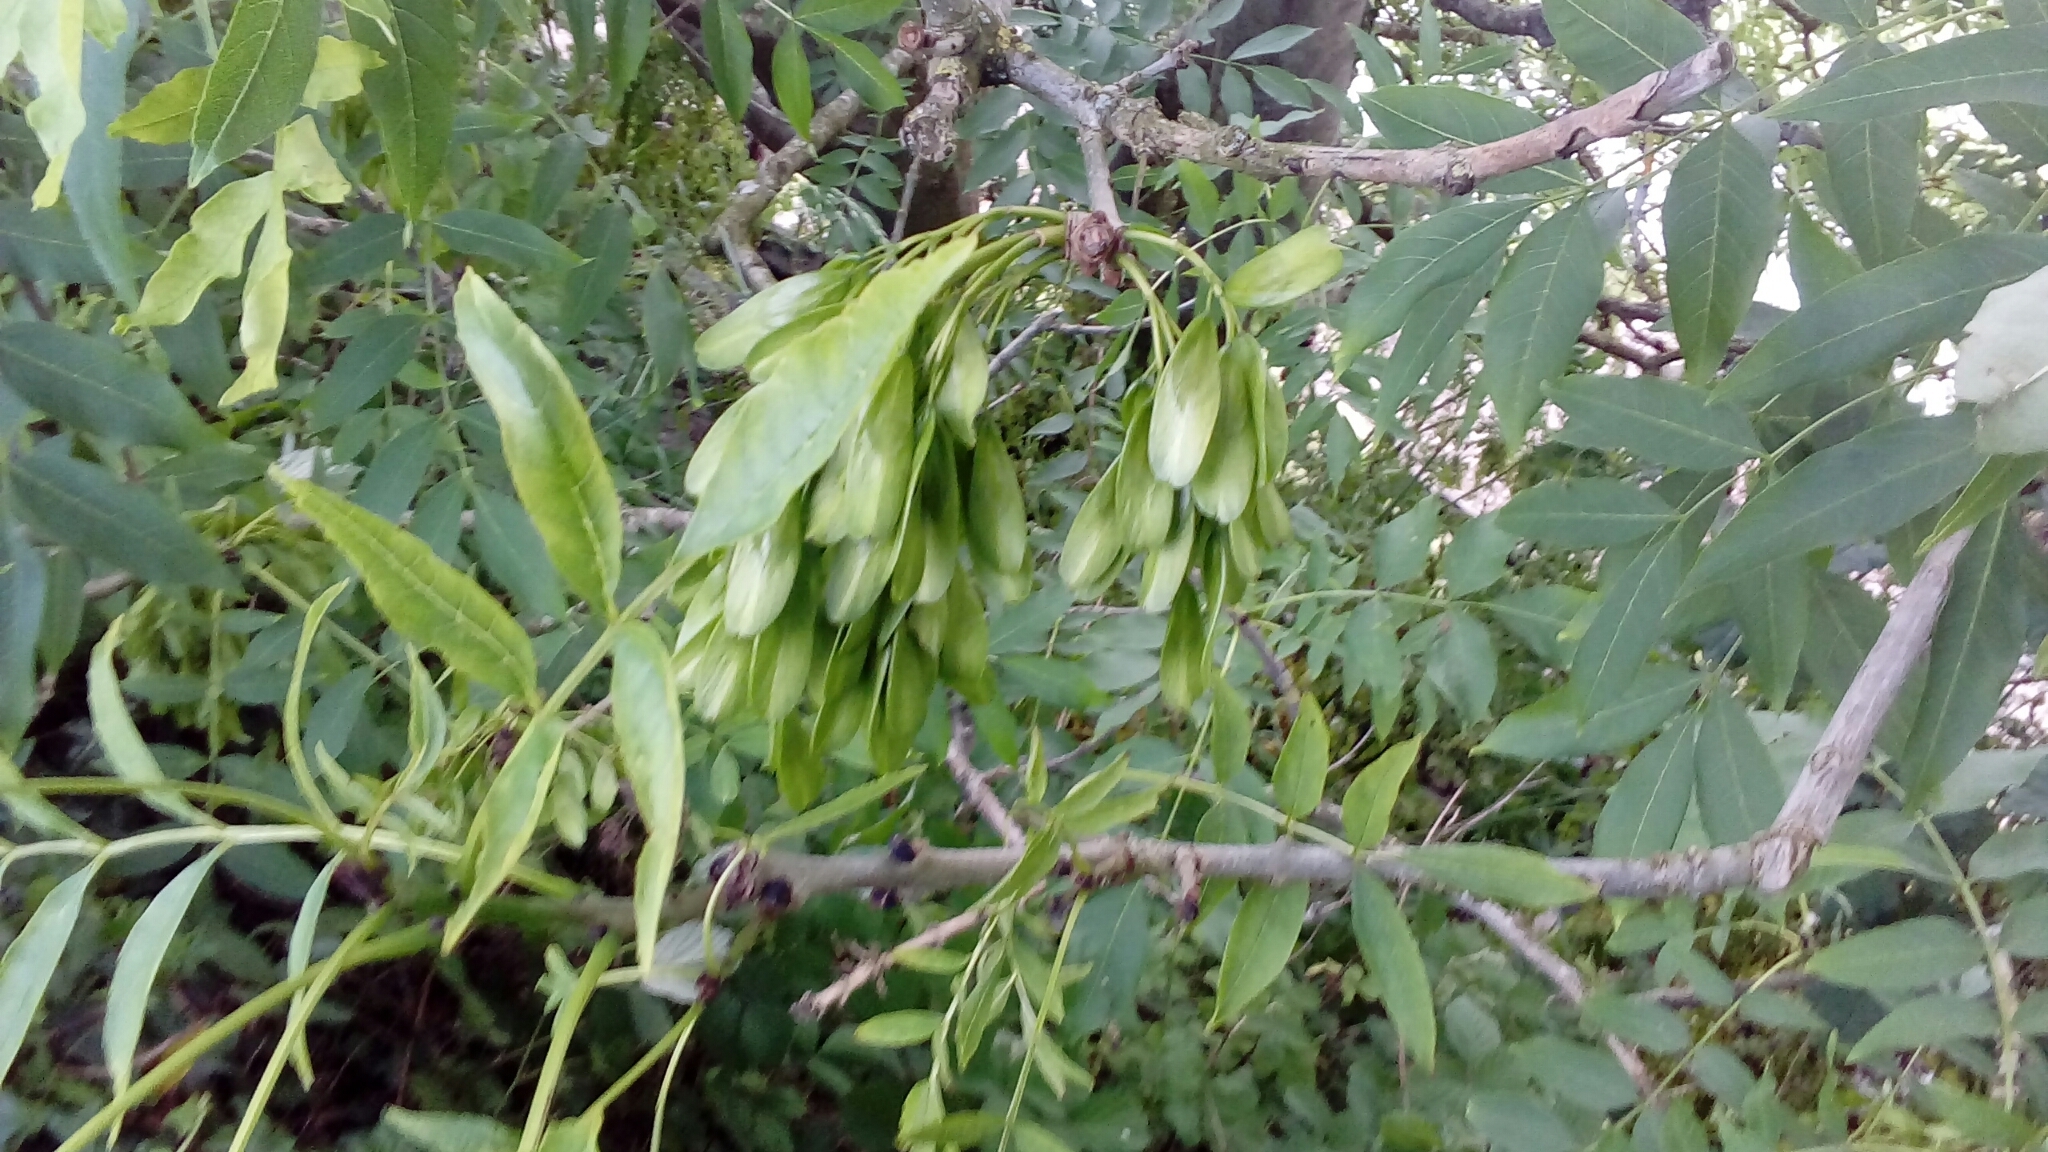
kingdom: Plantae
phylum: Tracheophyta
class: Magnoliopsida
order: Lamiales
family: Oleaceae
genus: Fraxinus
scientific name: Fraxinus excelsior
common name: European ash
